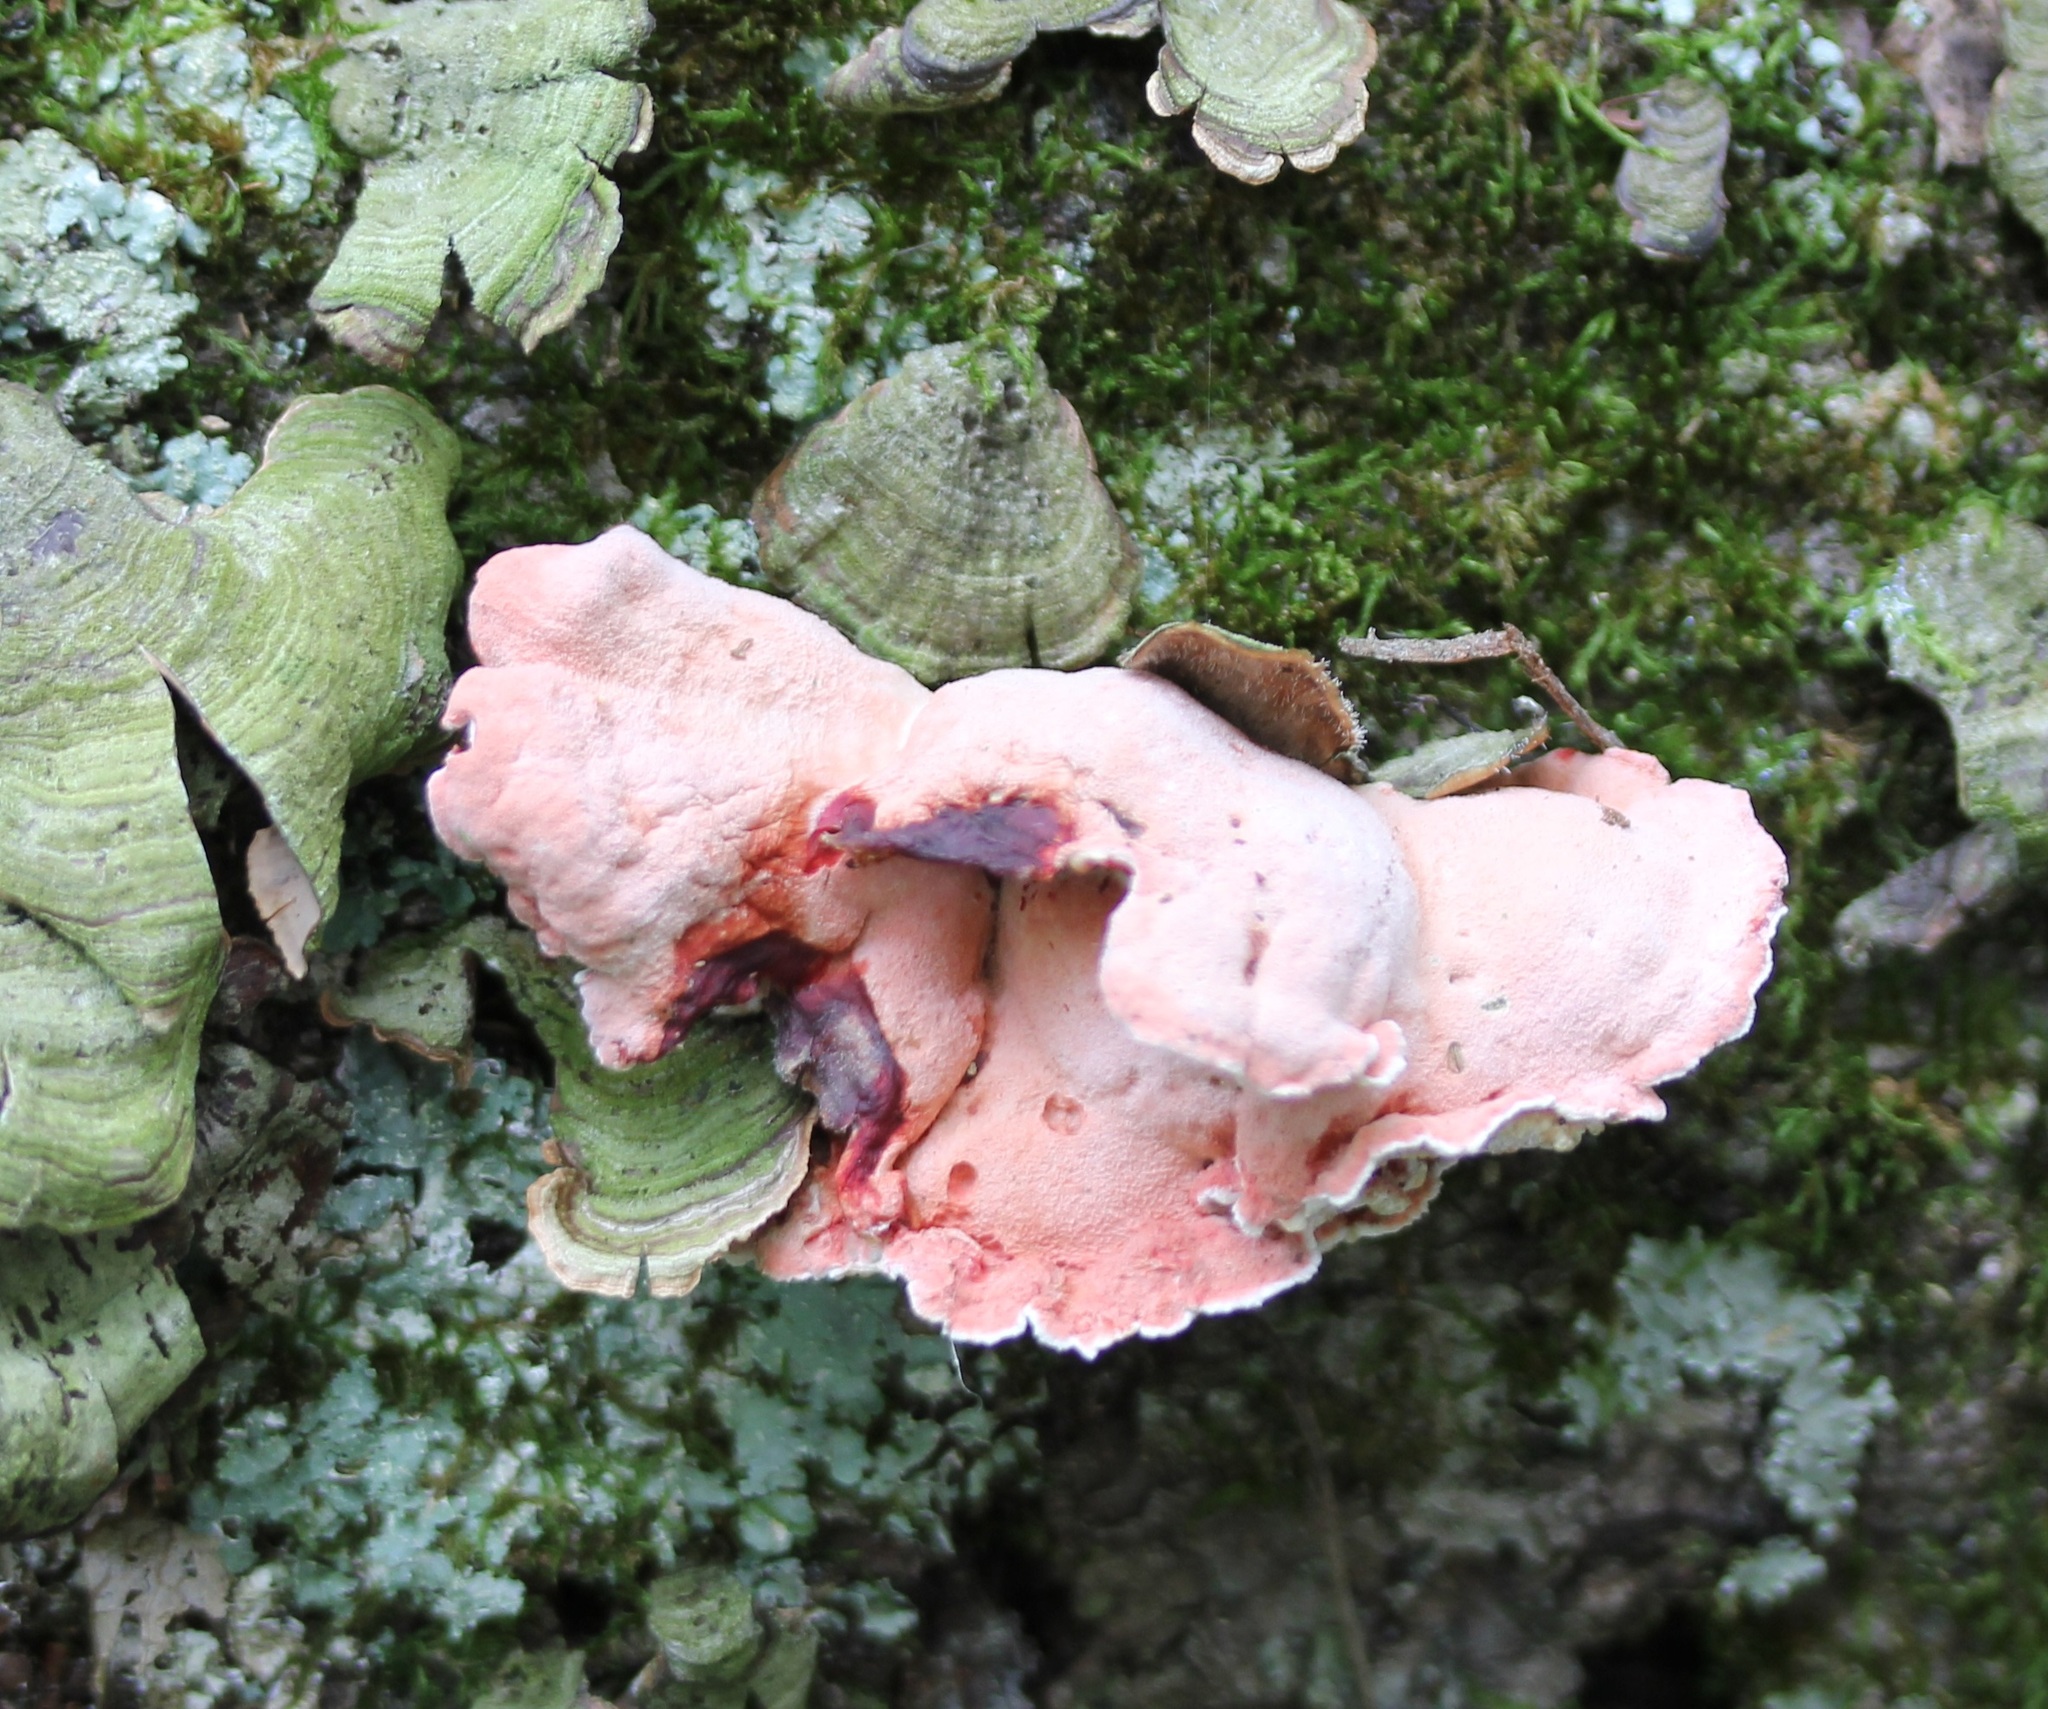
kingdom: Fungi
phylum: Basidiomycota
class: Agaricomycetes
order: Polyporales
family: Irpicaceae
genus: Byssomerulius
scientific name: Byssomerulius incarnatus
